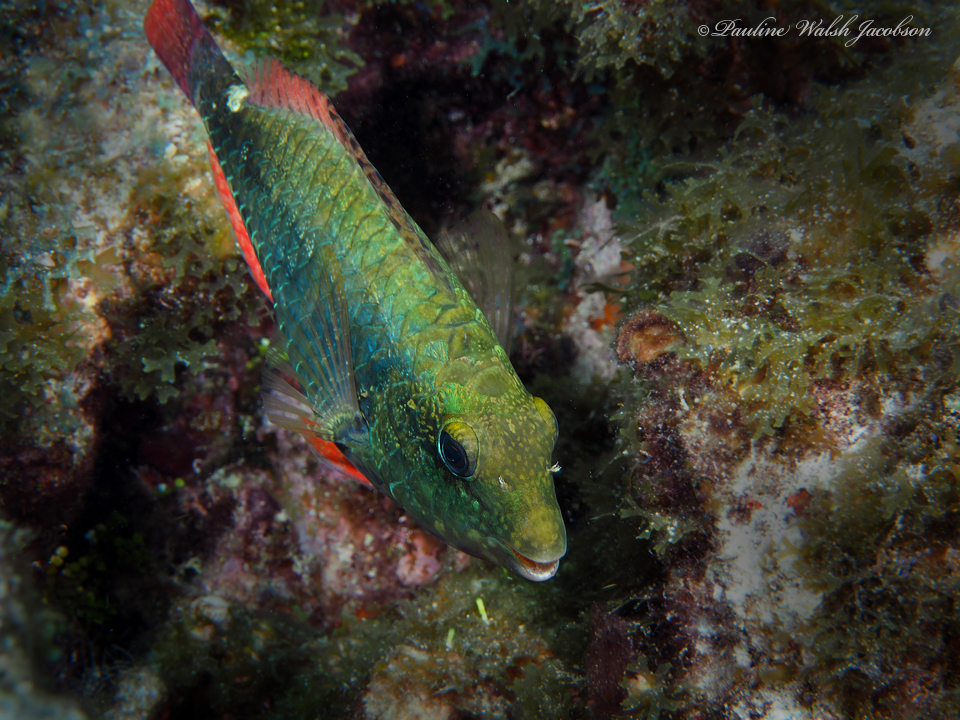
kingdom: Animalia
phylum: Chordata
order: Perciformes
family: Scaridae
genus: Sparisoma
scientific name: Sparisoma aurofrenatum
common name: Redband parrotfish
